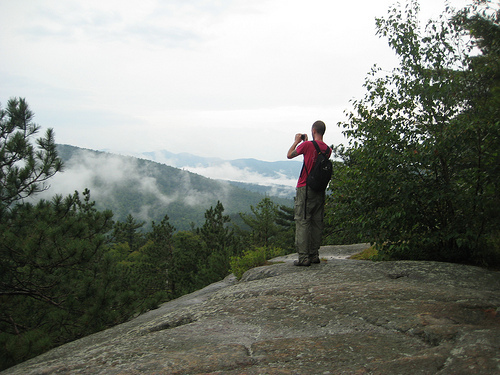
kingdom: Plantae
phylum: Tracheophyta
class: Pinopsida
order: Pinales
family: Pinaceae
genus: Pinus
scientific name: Pinus resinosa
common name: Norway pine
